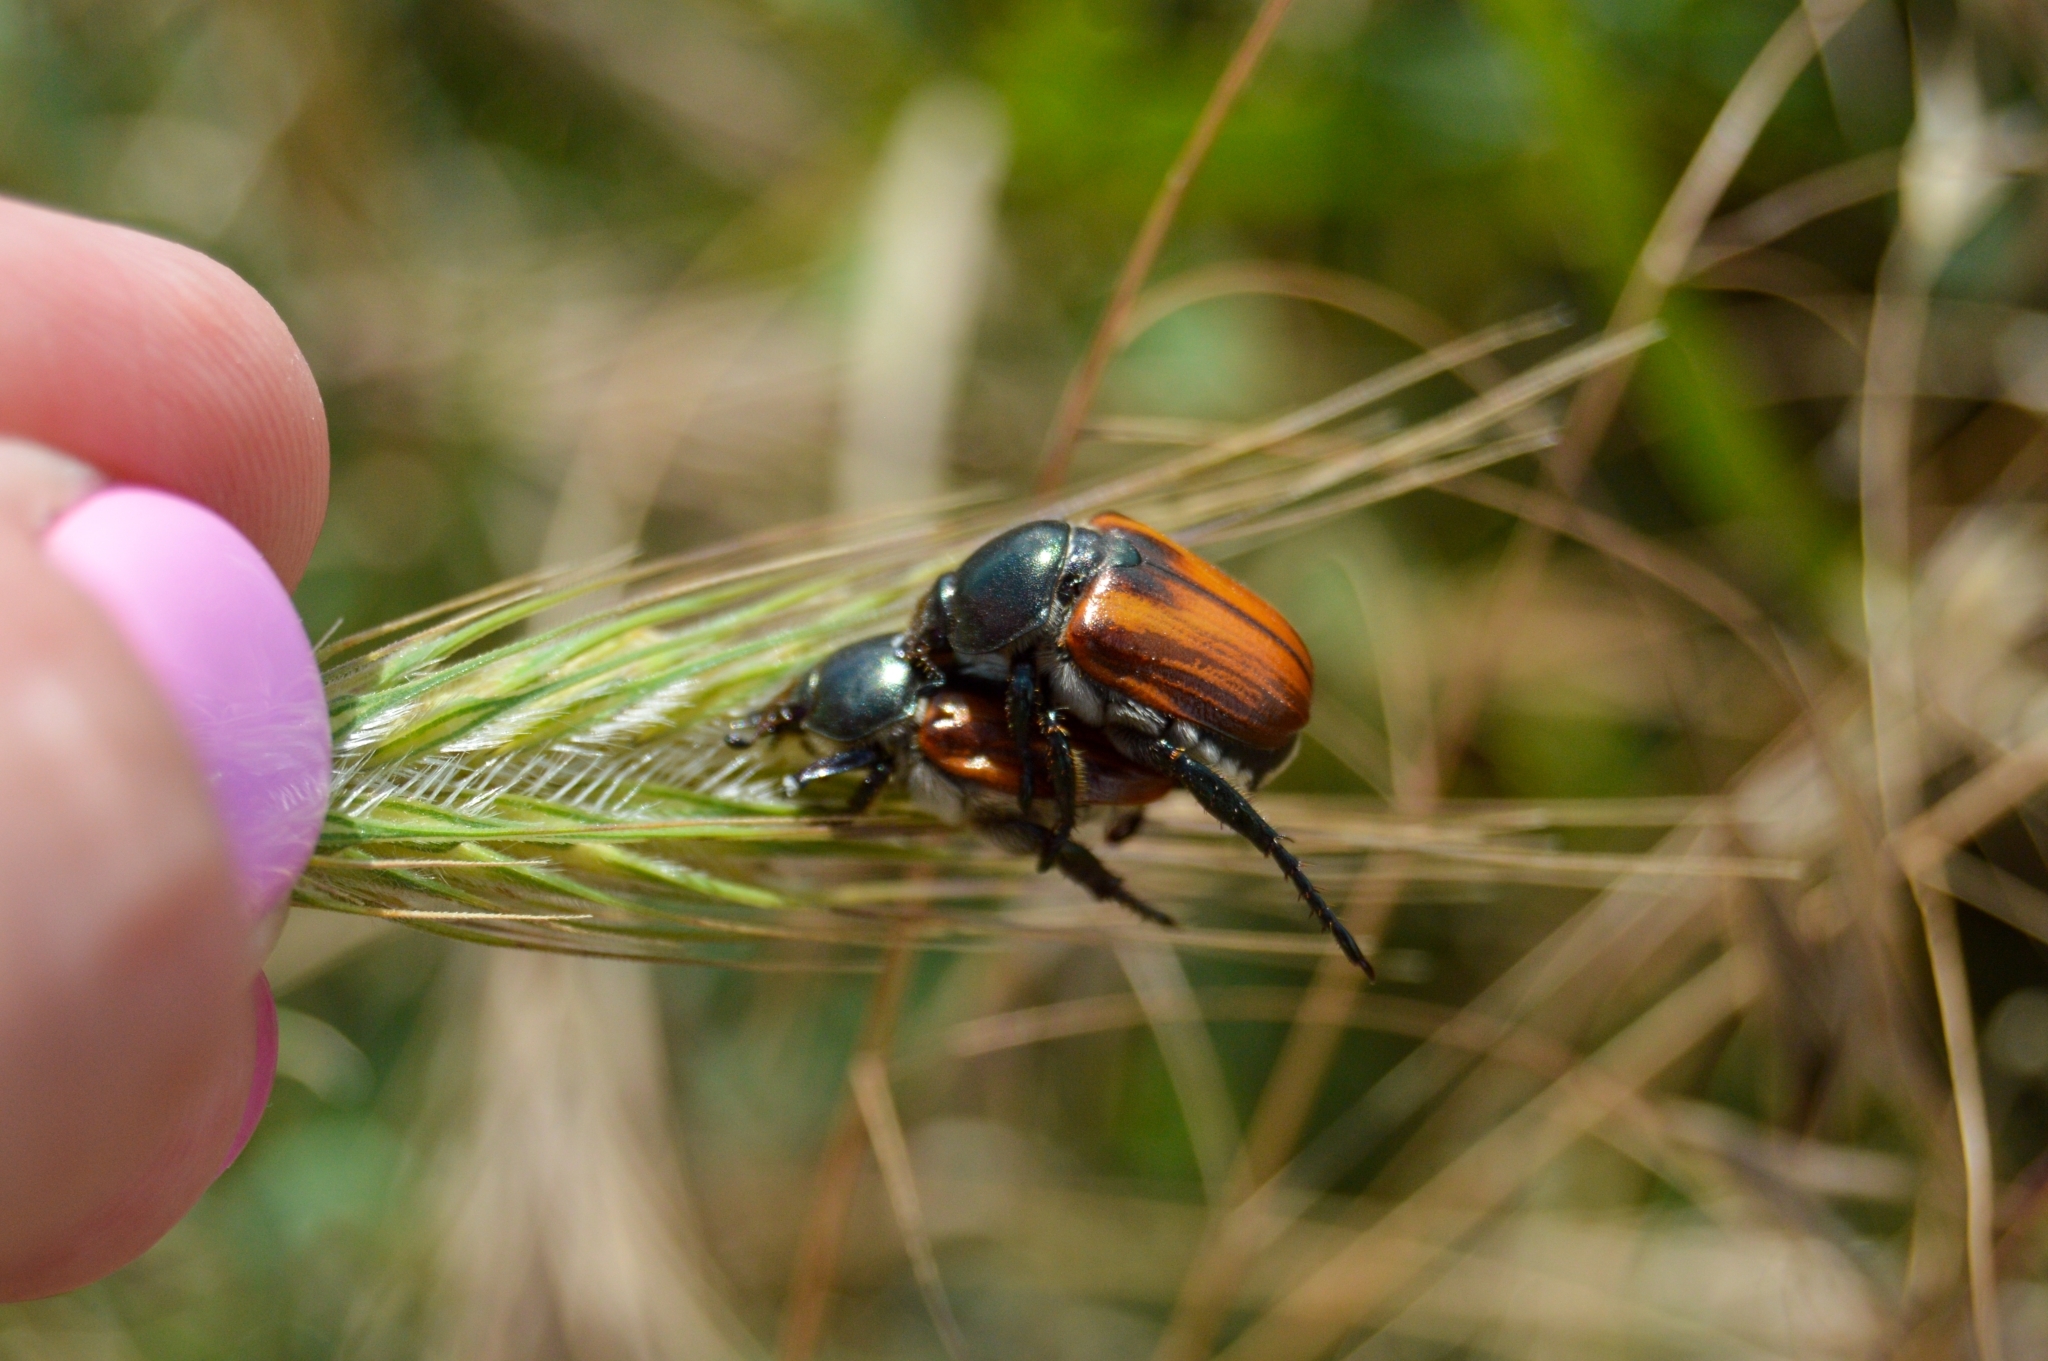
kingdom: Animalia
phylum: Arthropoda
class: Insecta
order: Coleoptera
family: Scarabaeidae
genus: Anisoplia
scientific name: Anisoplia austriaca
